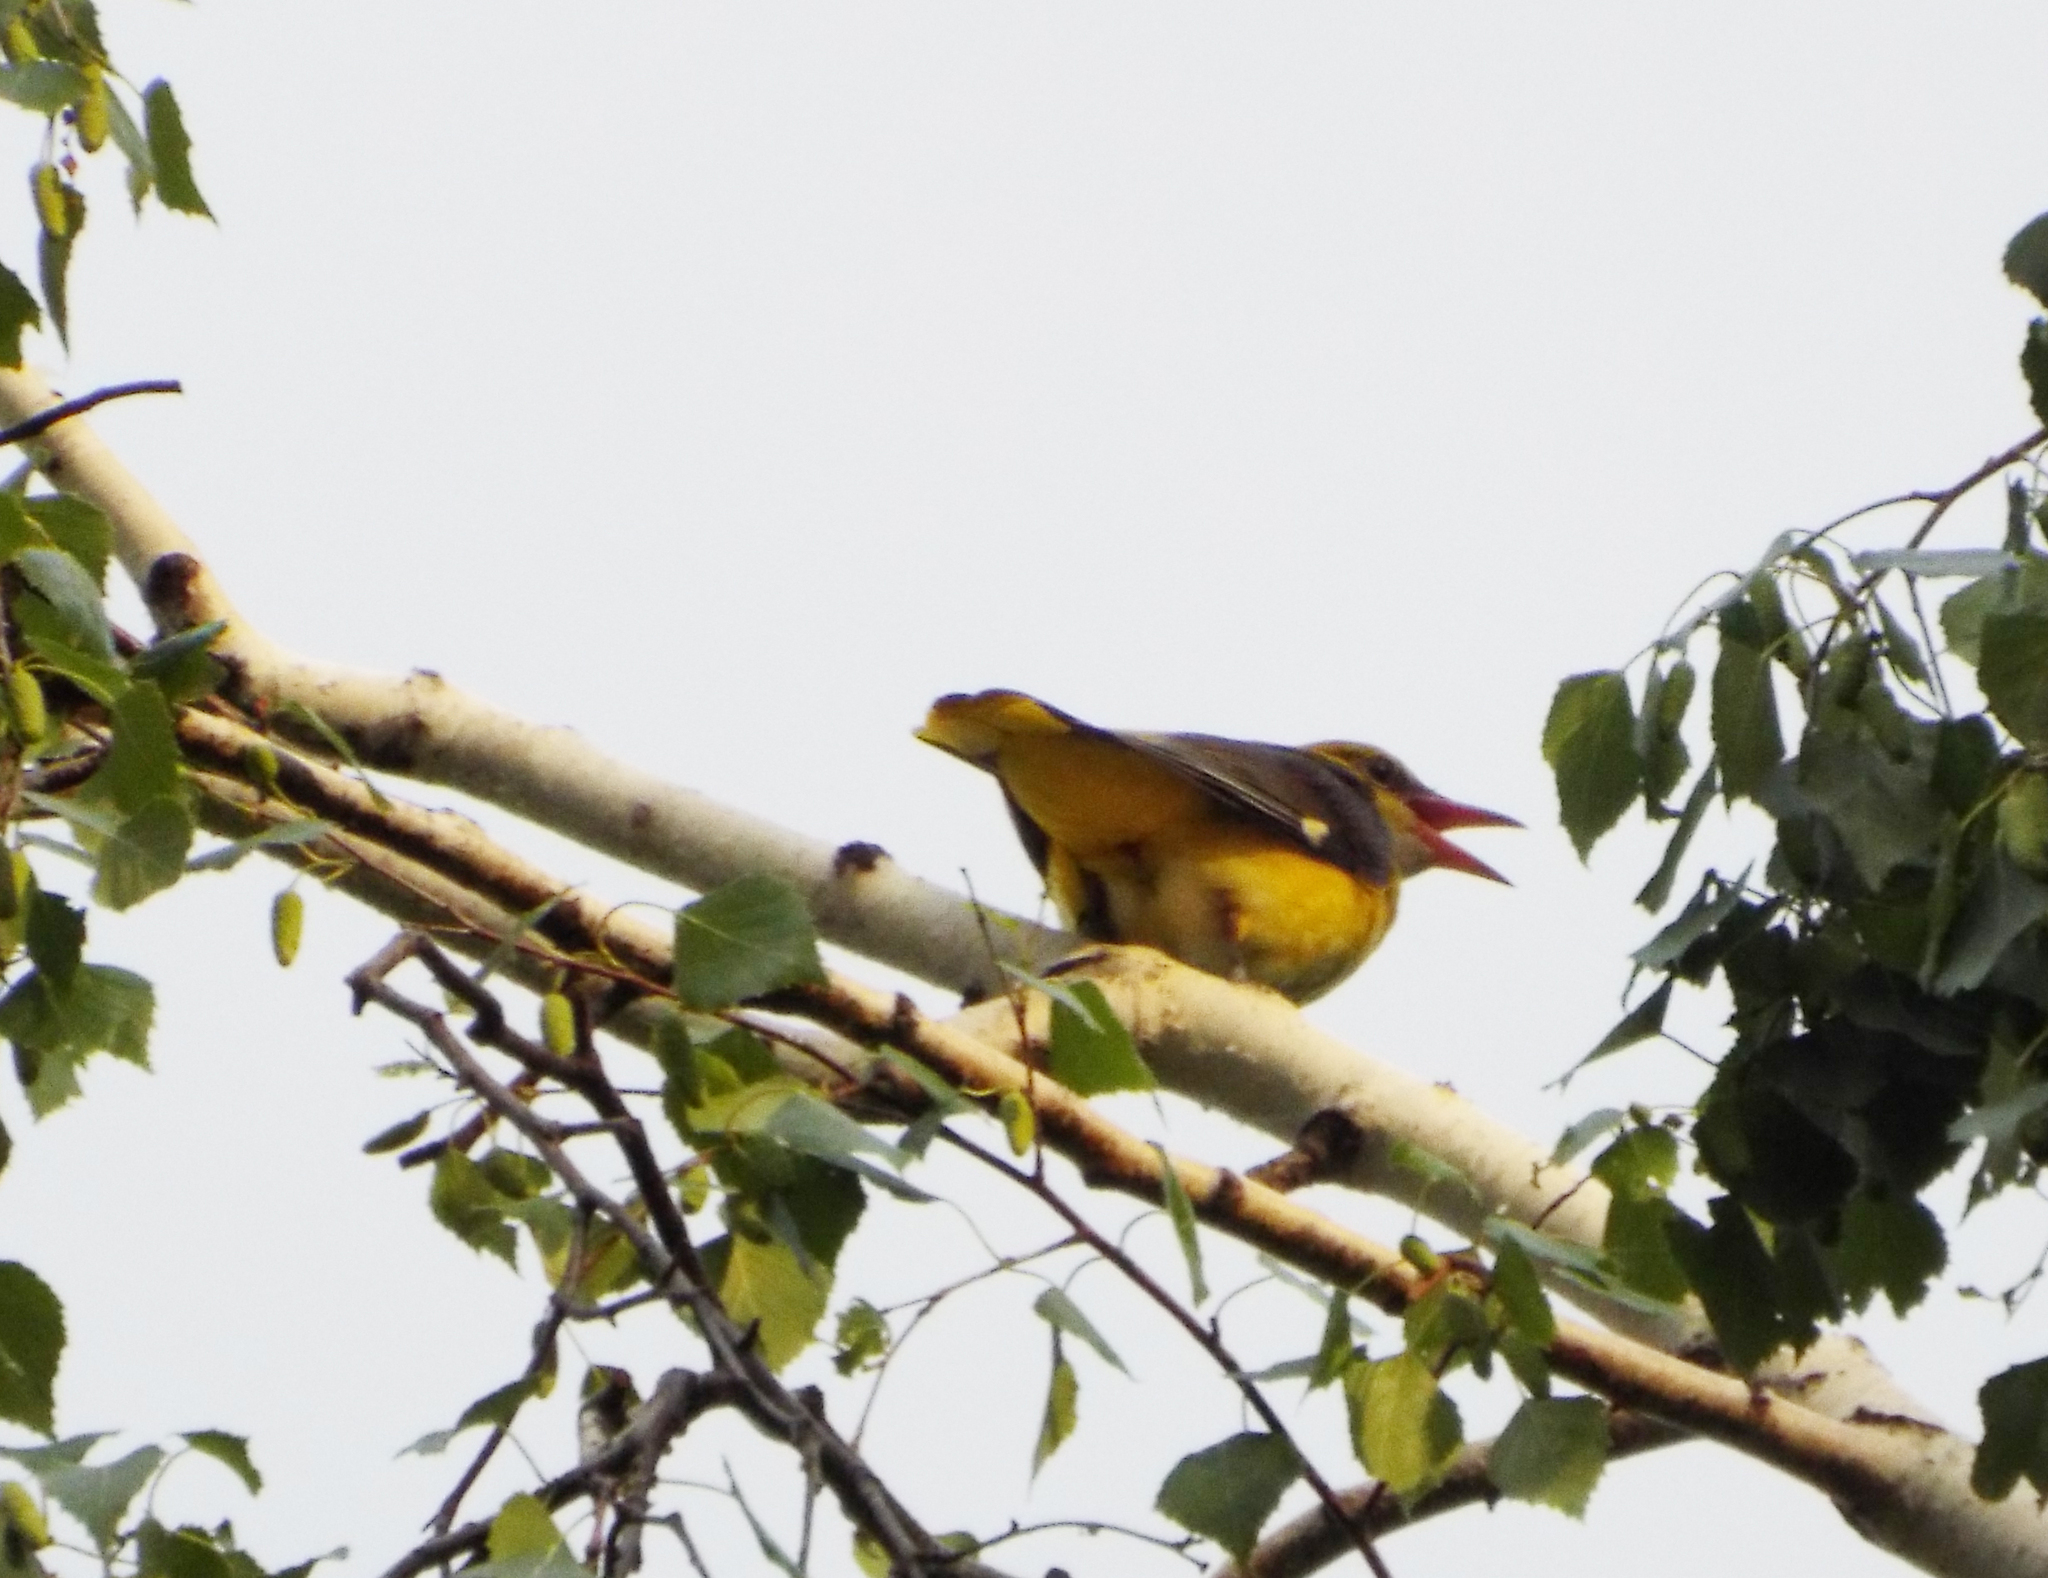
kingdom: Animalia
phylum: Chordata
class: Aves
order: Passeriformes
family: Oriolidae
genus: Oriolus
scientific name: Oriolus oriolus
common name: Eurasian golden oriole
